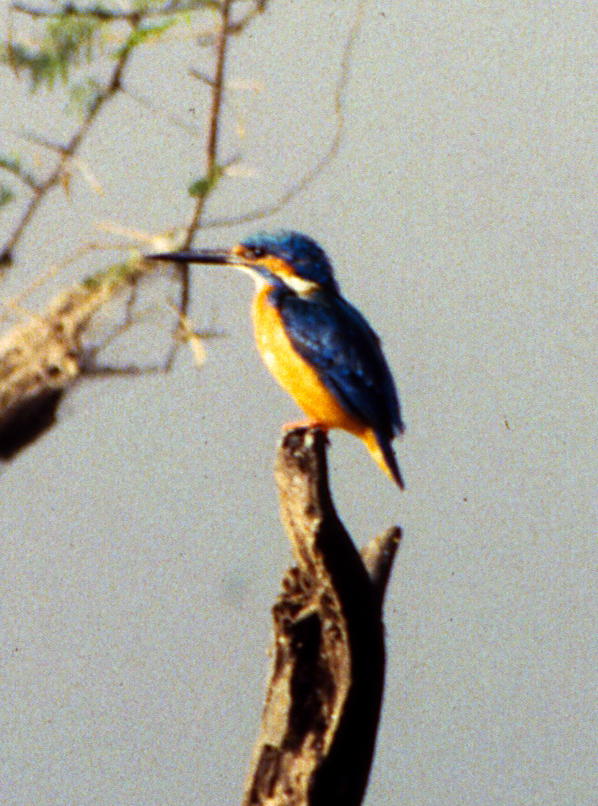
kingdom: Animalia
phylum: Chordata
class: Aves
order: Coraciiformes
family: Alcedinidae
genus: Alcedo
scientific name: Alcedo atthis
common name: Common kingfisher
